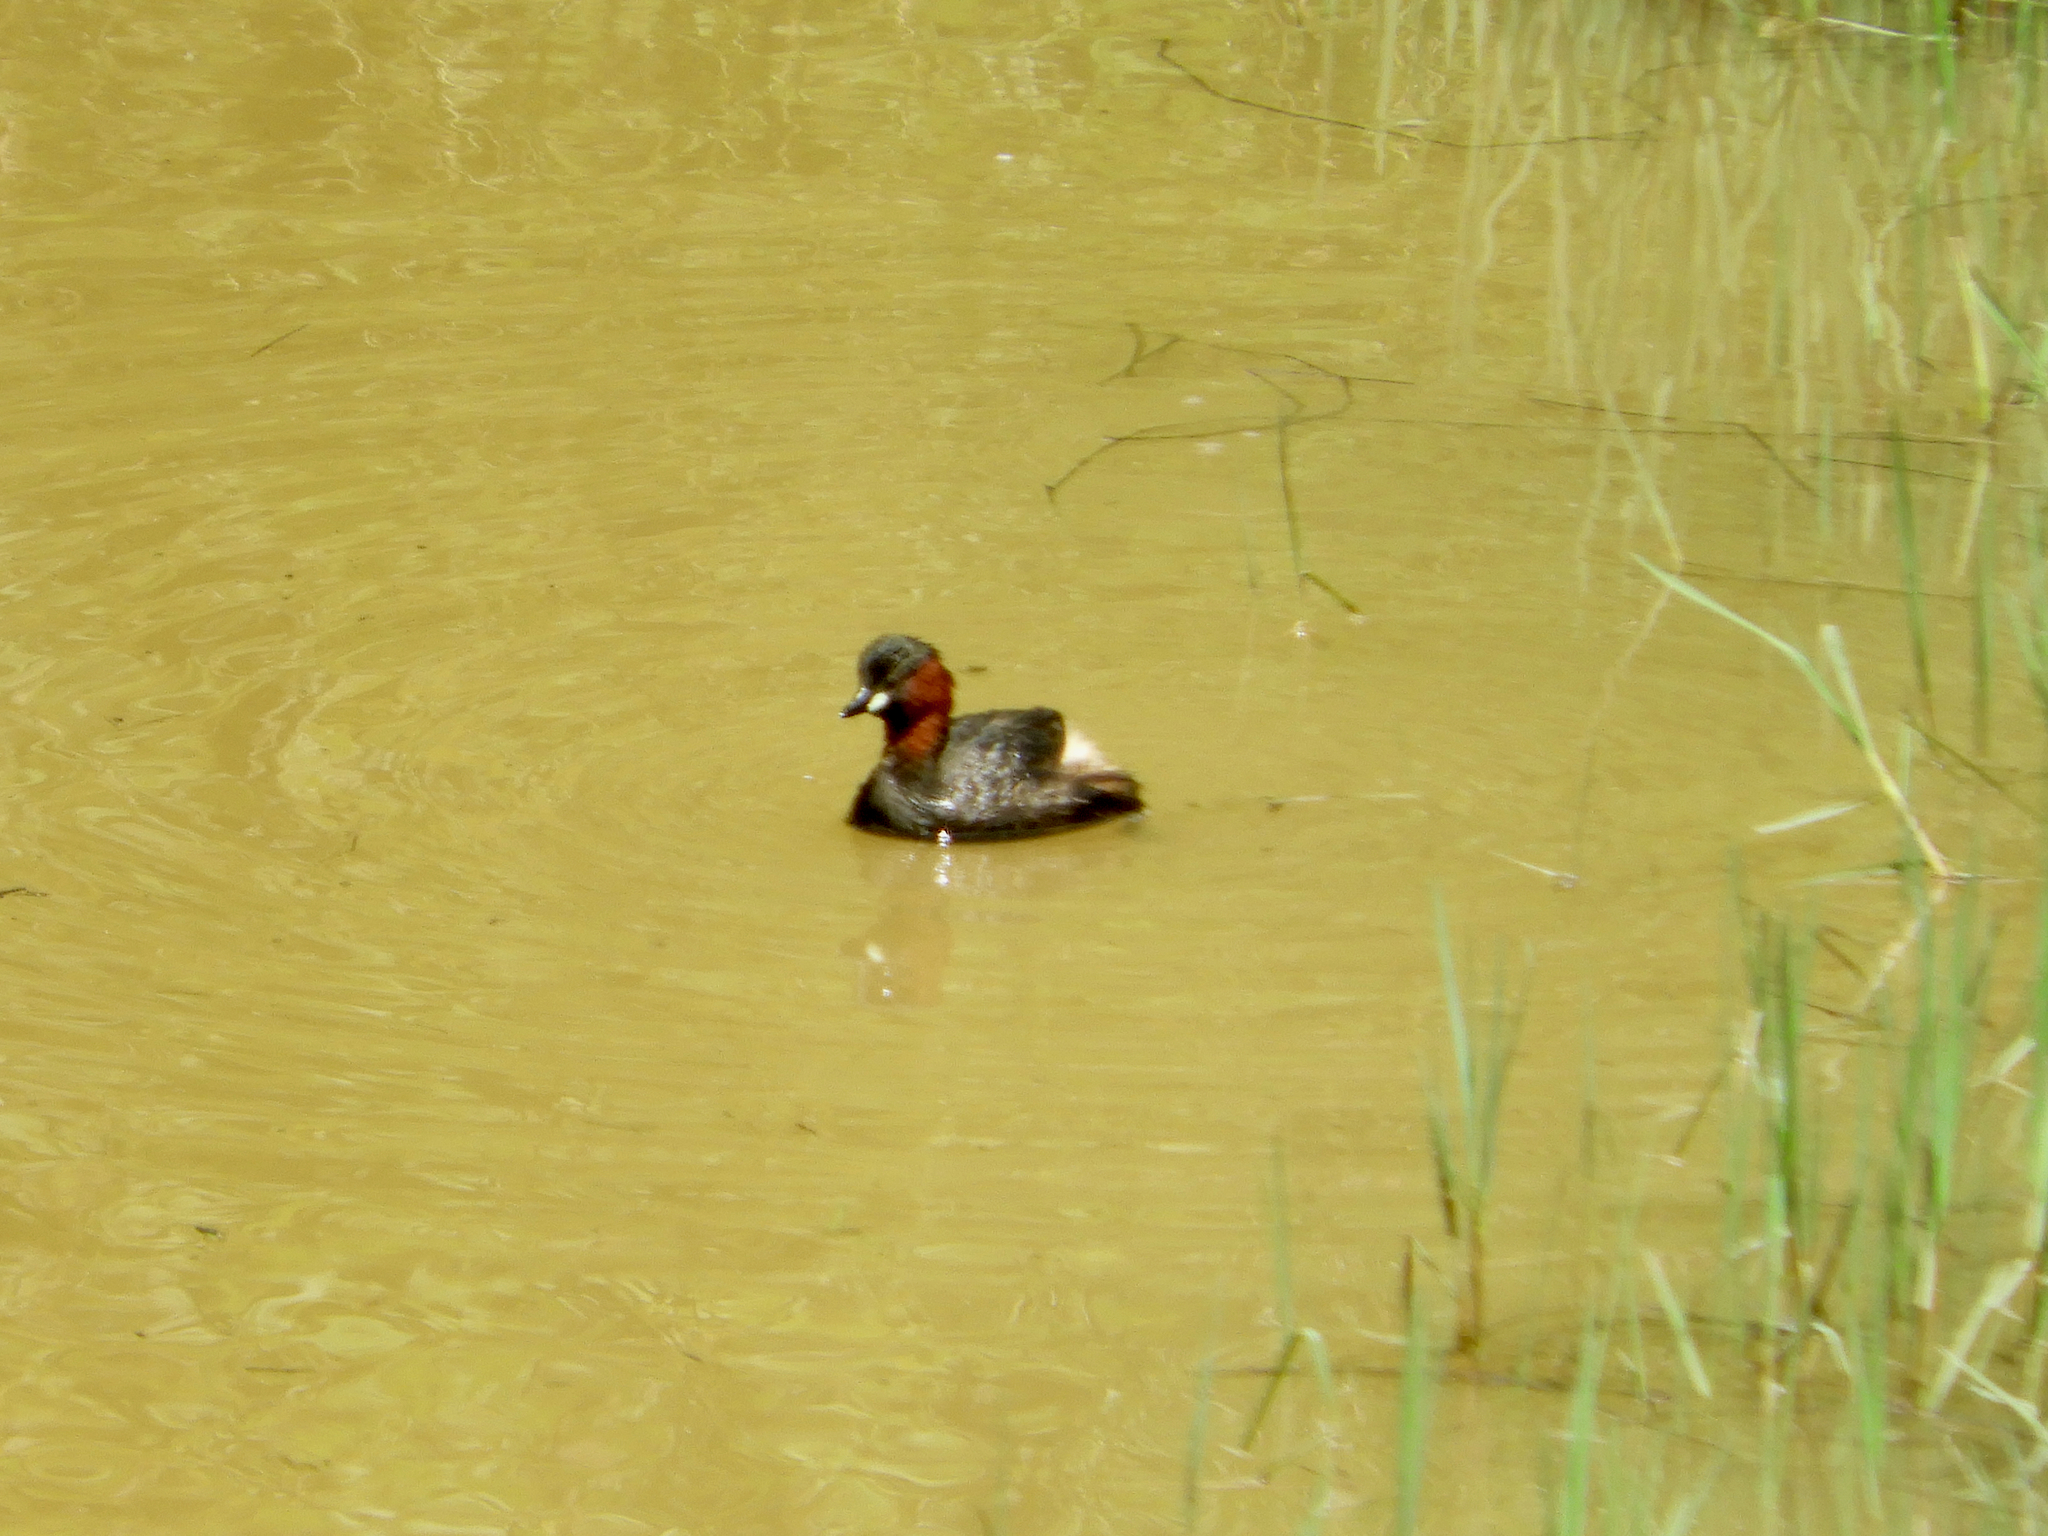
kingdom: Animalia
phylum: Chordata
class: Aves
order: Podicipediformes
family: Podicipedidae
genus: Tachybaptus
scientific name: Tachybaptus ruficollis
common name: Little grebe
